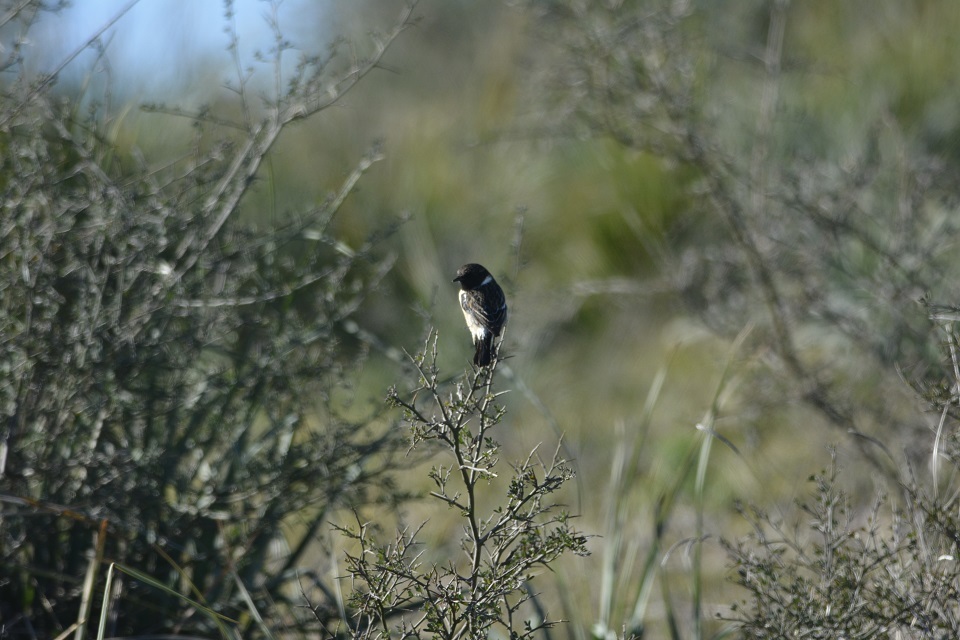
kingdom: Animalia
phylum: Chordata
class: Aves
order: Passeriformes
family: Muscicapidae
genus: Saxicola
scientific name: Saxicola rubicola
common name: European stonechat
